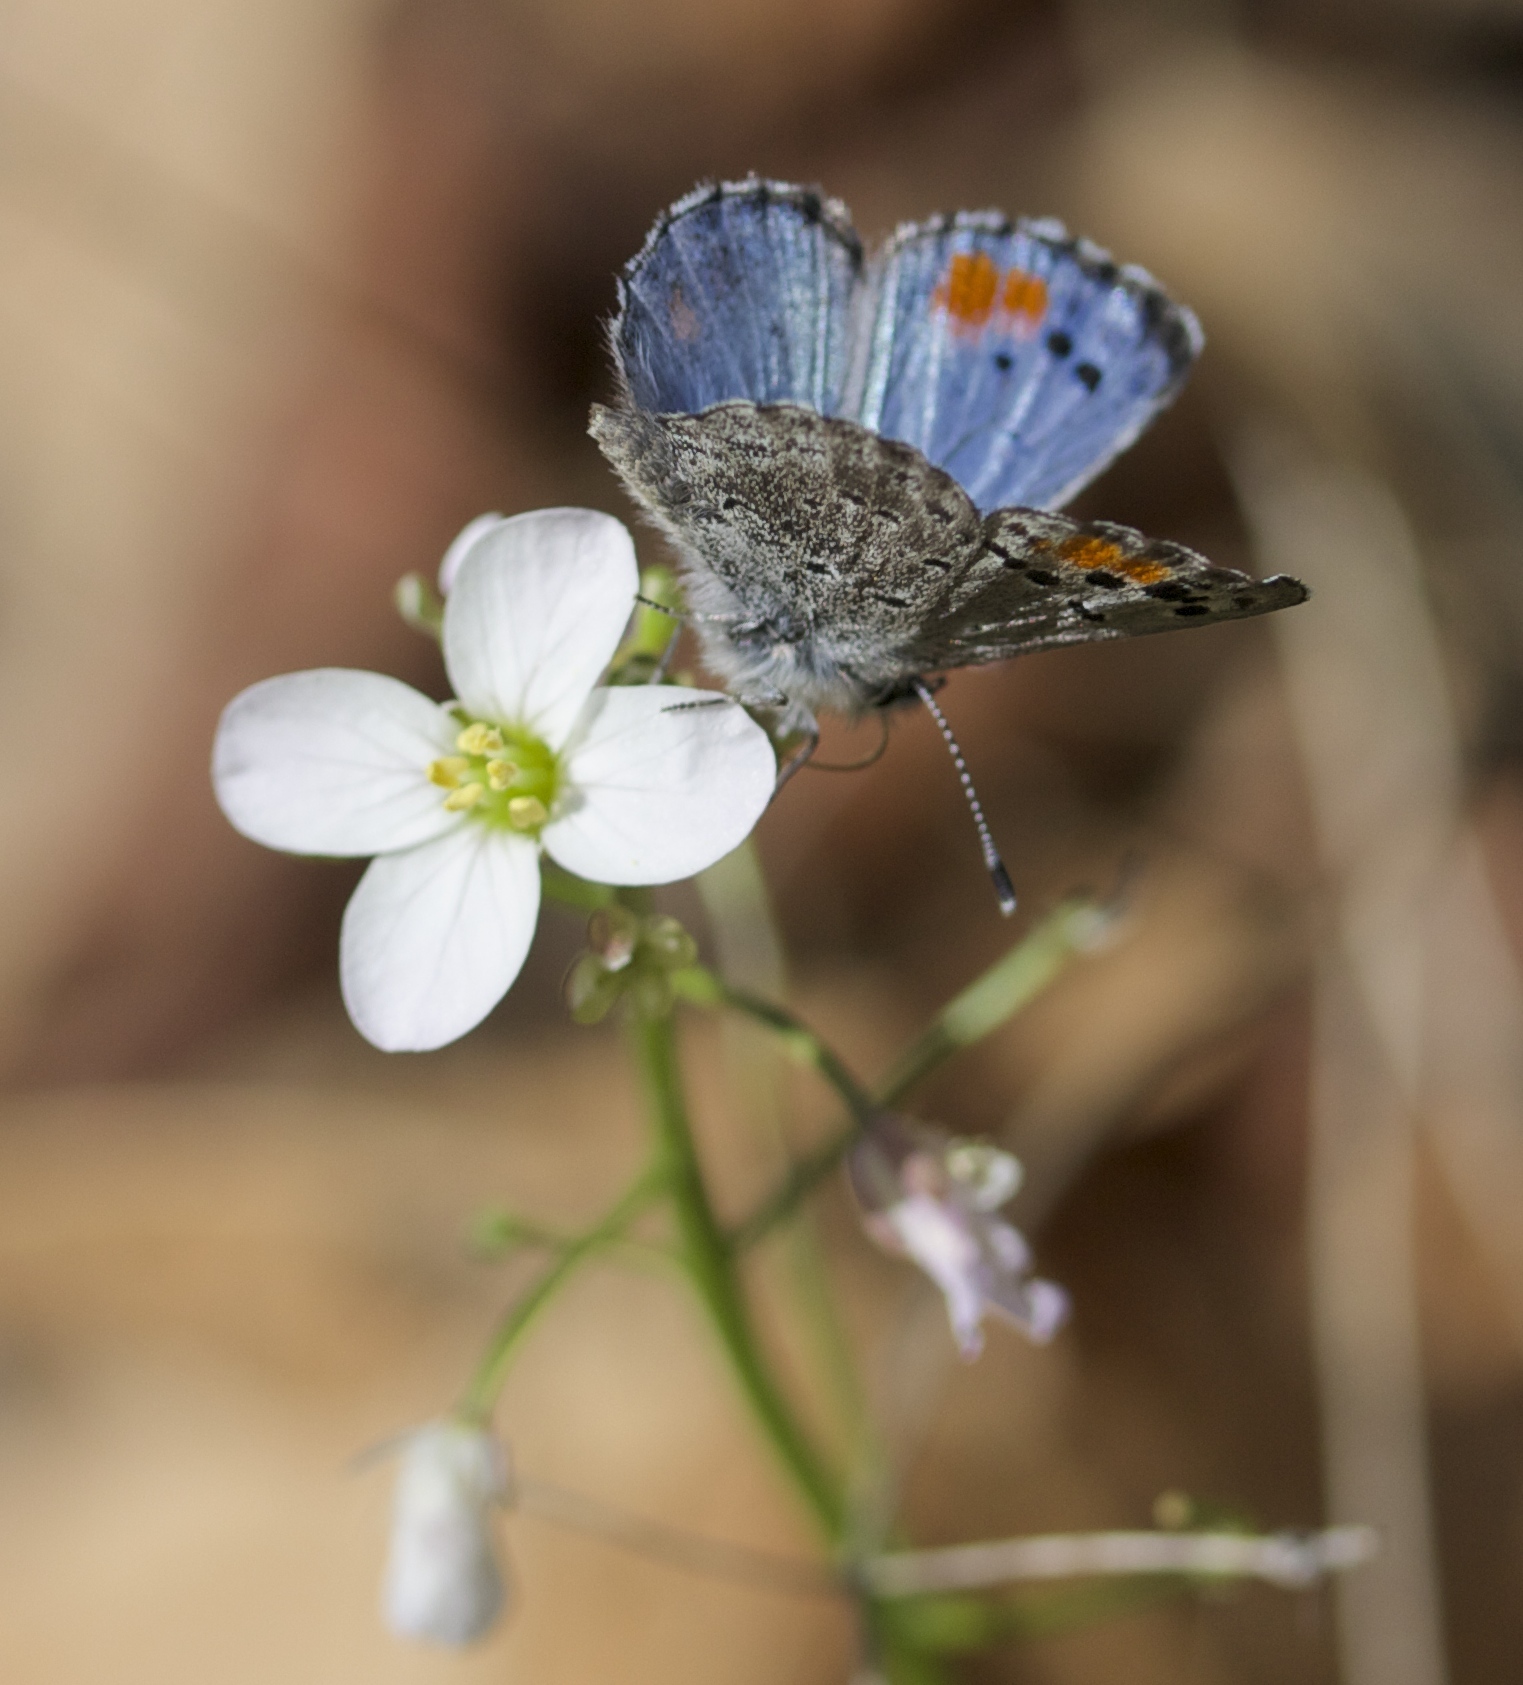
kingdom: Animalia
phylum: Arthropoda
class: Insecta
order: Lepidoptera
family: Lycaenidae
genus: Philotes
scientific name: Philotes sonorensis
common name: Sonoran blue
